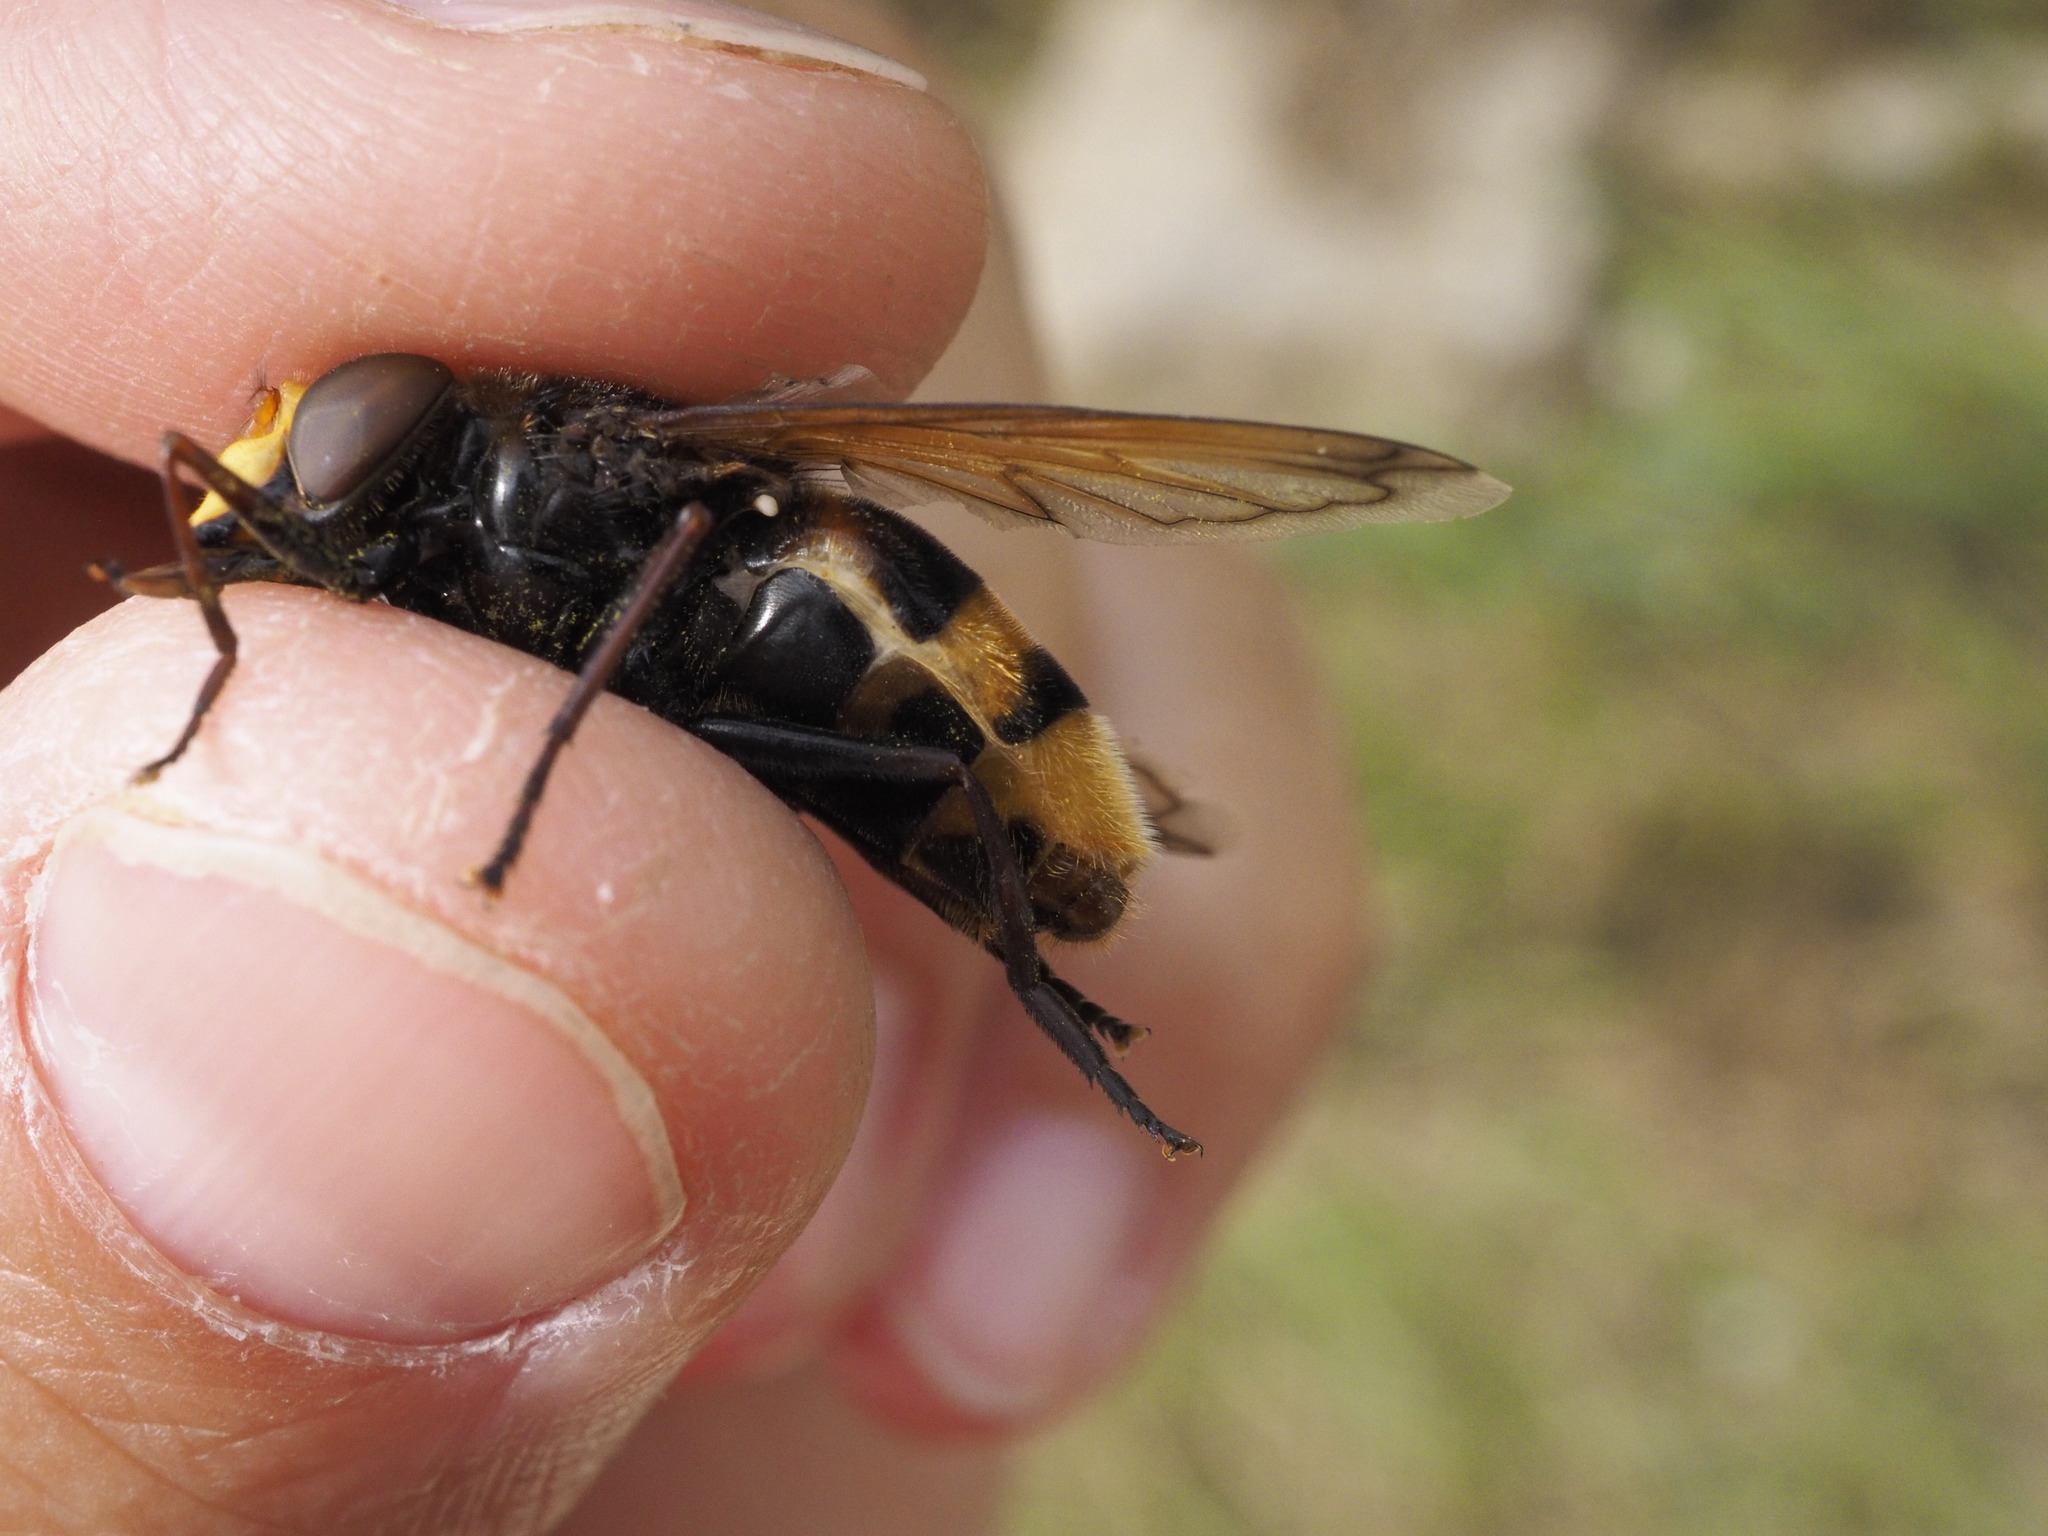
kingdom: Animalia
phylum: Arthropoda
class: Insecta
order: Diptera
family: Syrphidae
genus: Volucella
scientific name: Volucella zonaria
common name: Hornet hoverfly
